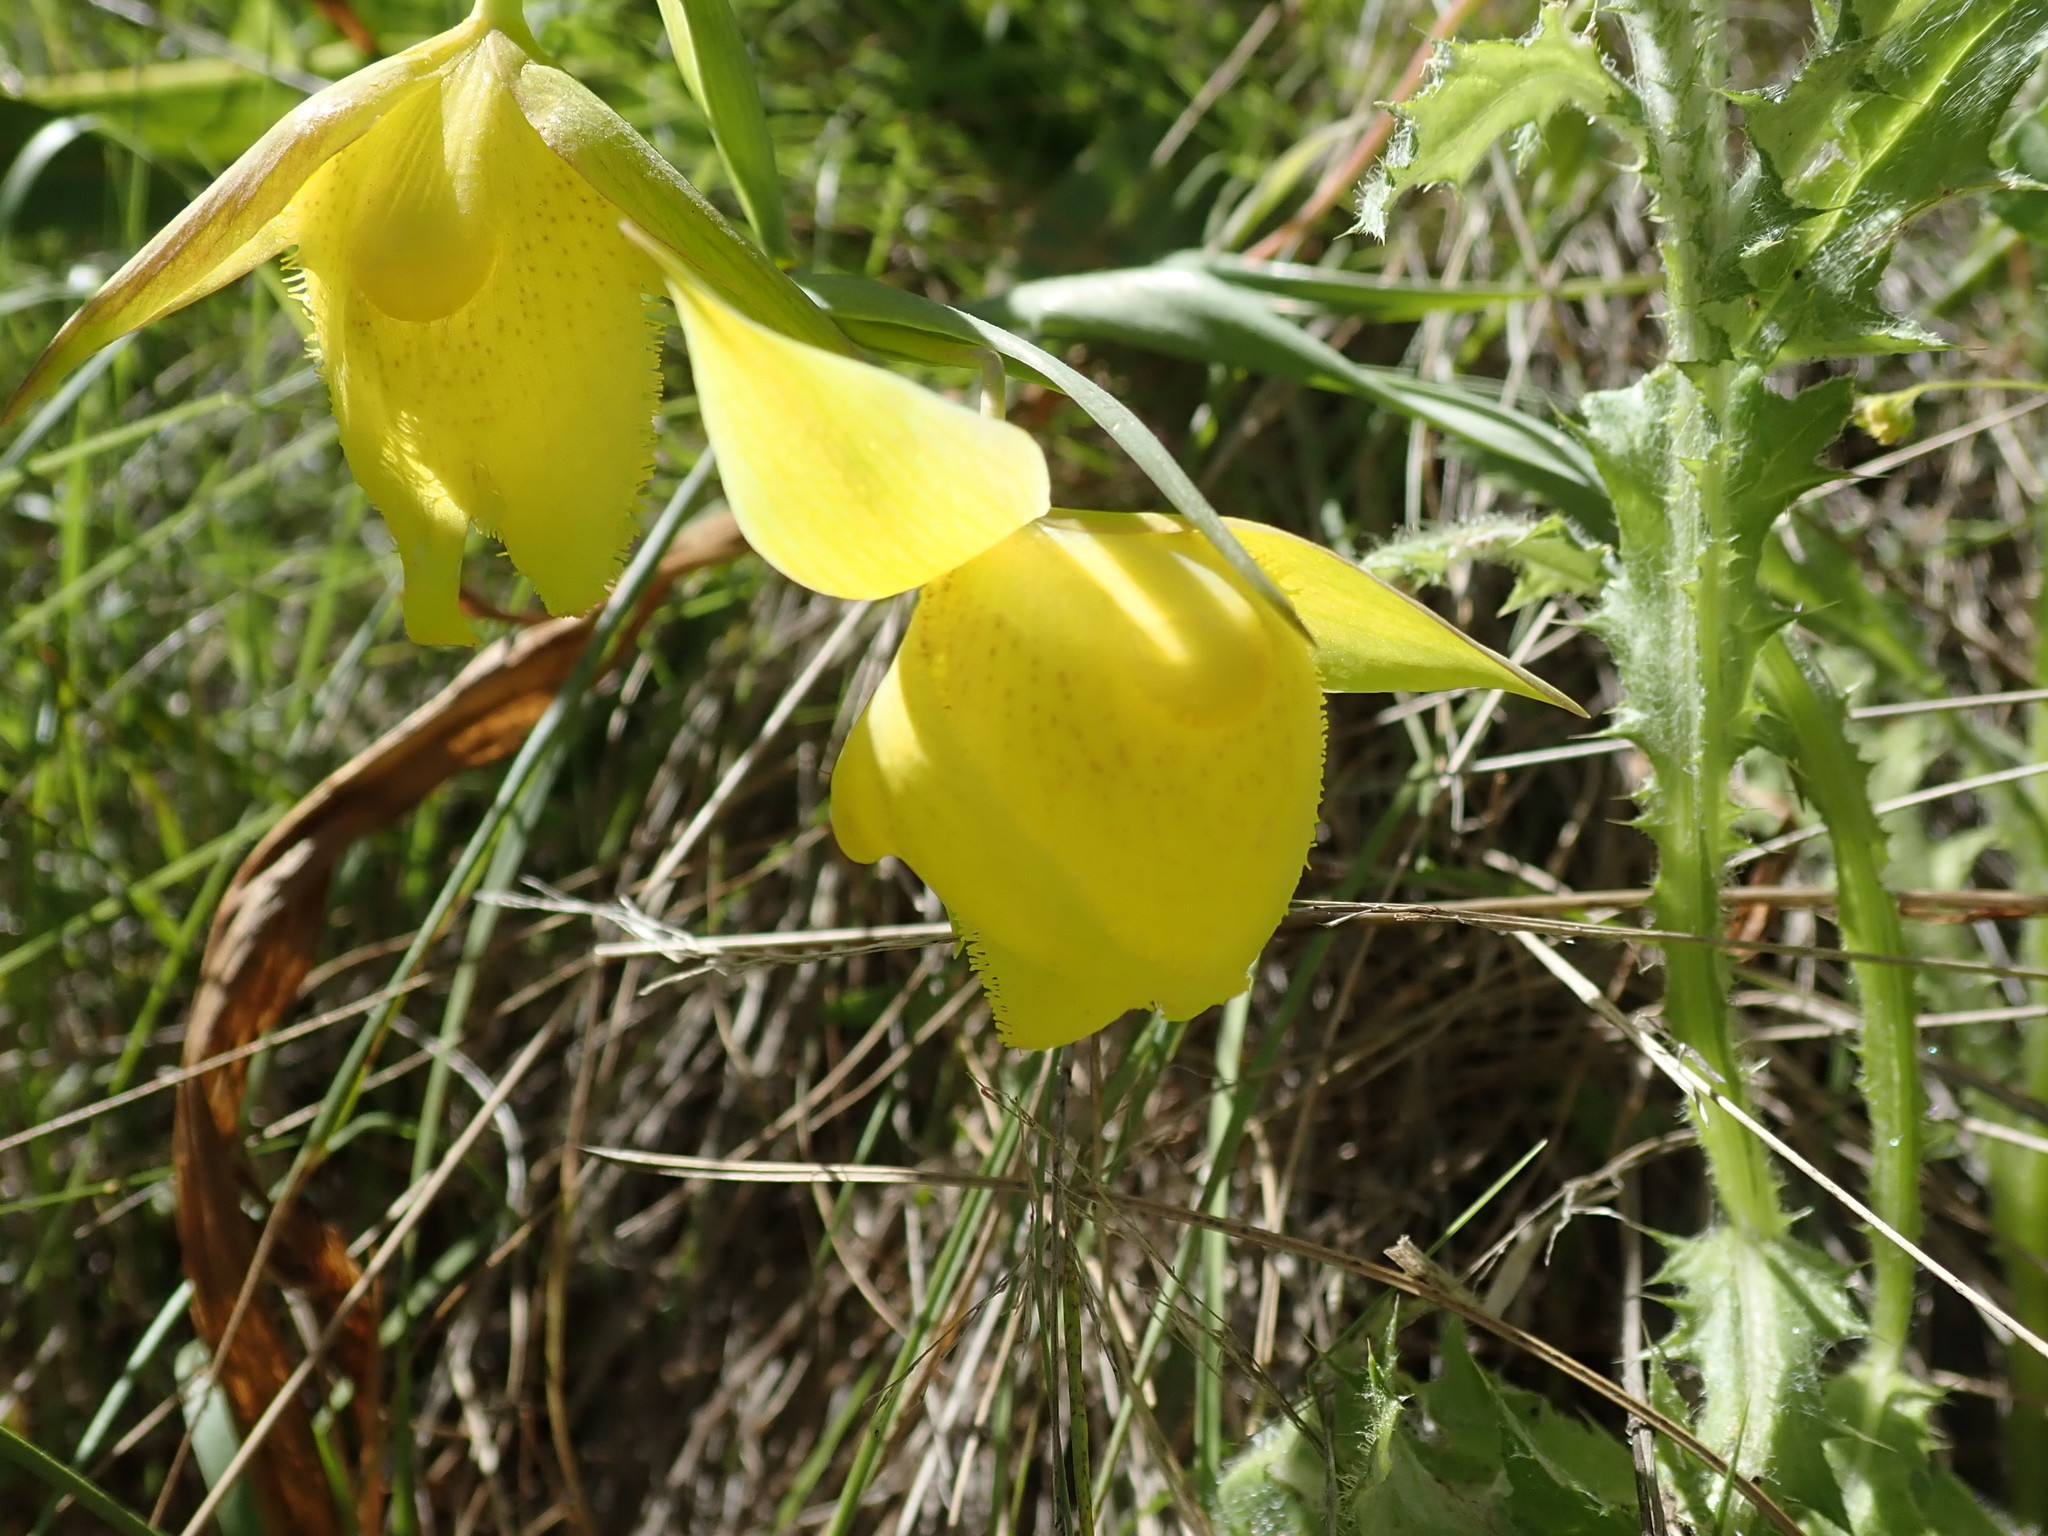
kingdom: Plantae
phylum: Tracheophyta
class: Liliopsida
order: Liliales
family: Liliaceae
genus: Calochortus
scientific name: Calochortus pulchellus
